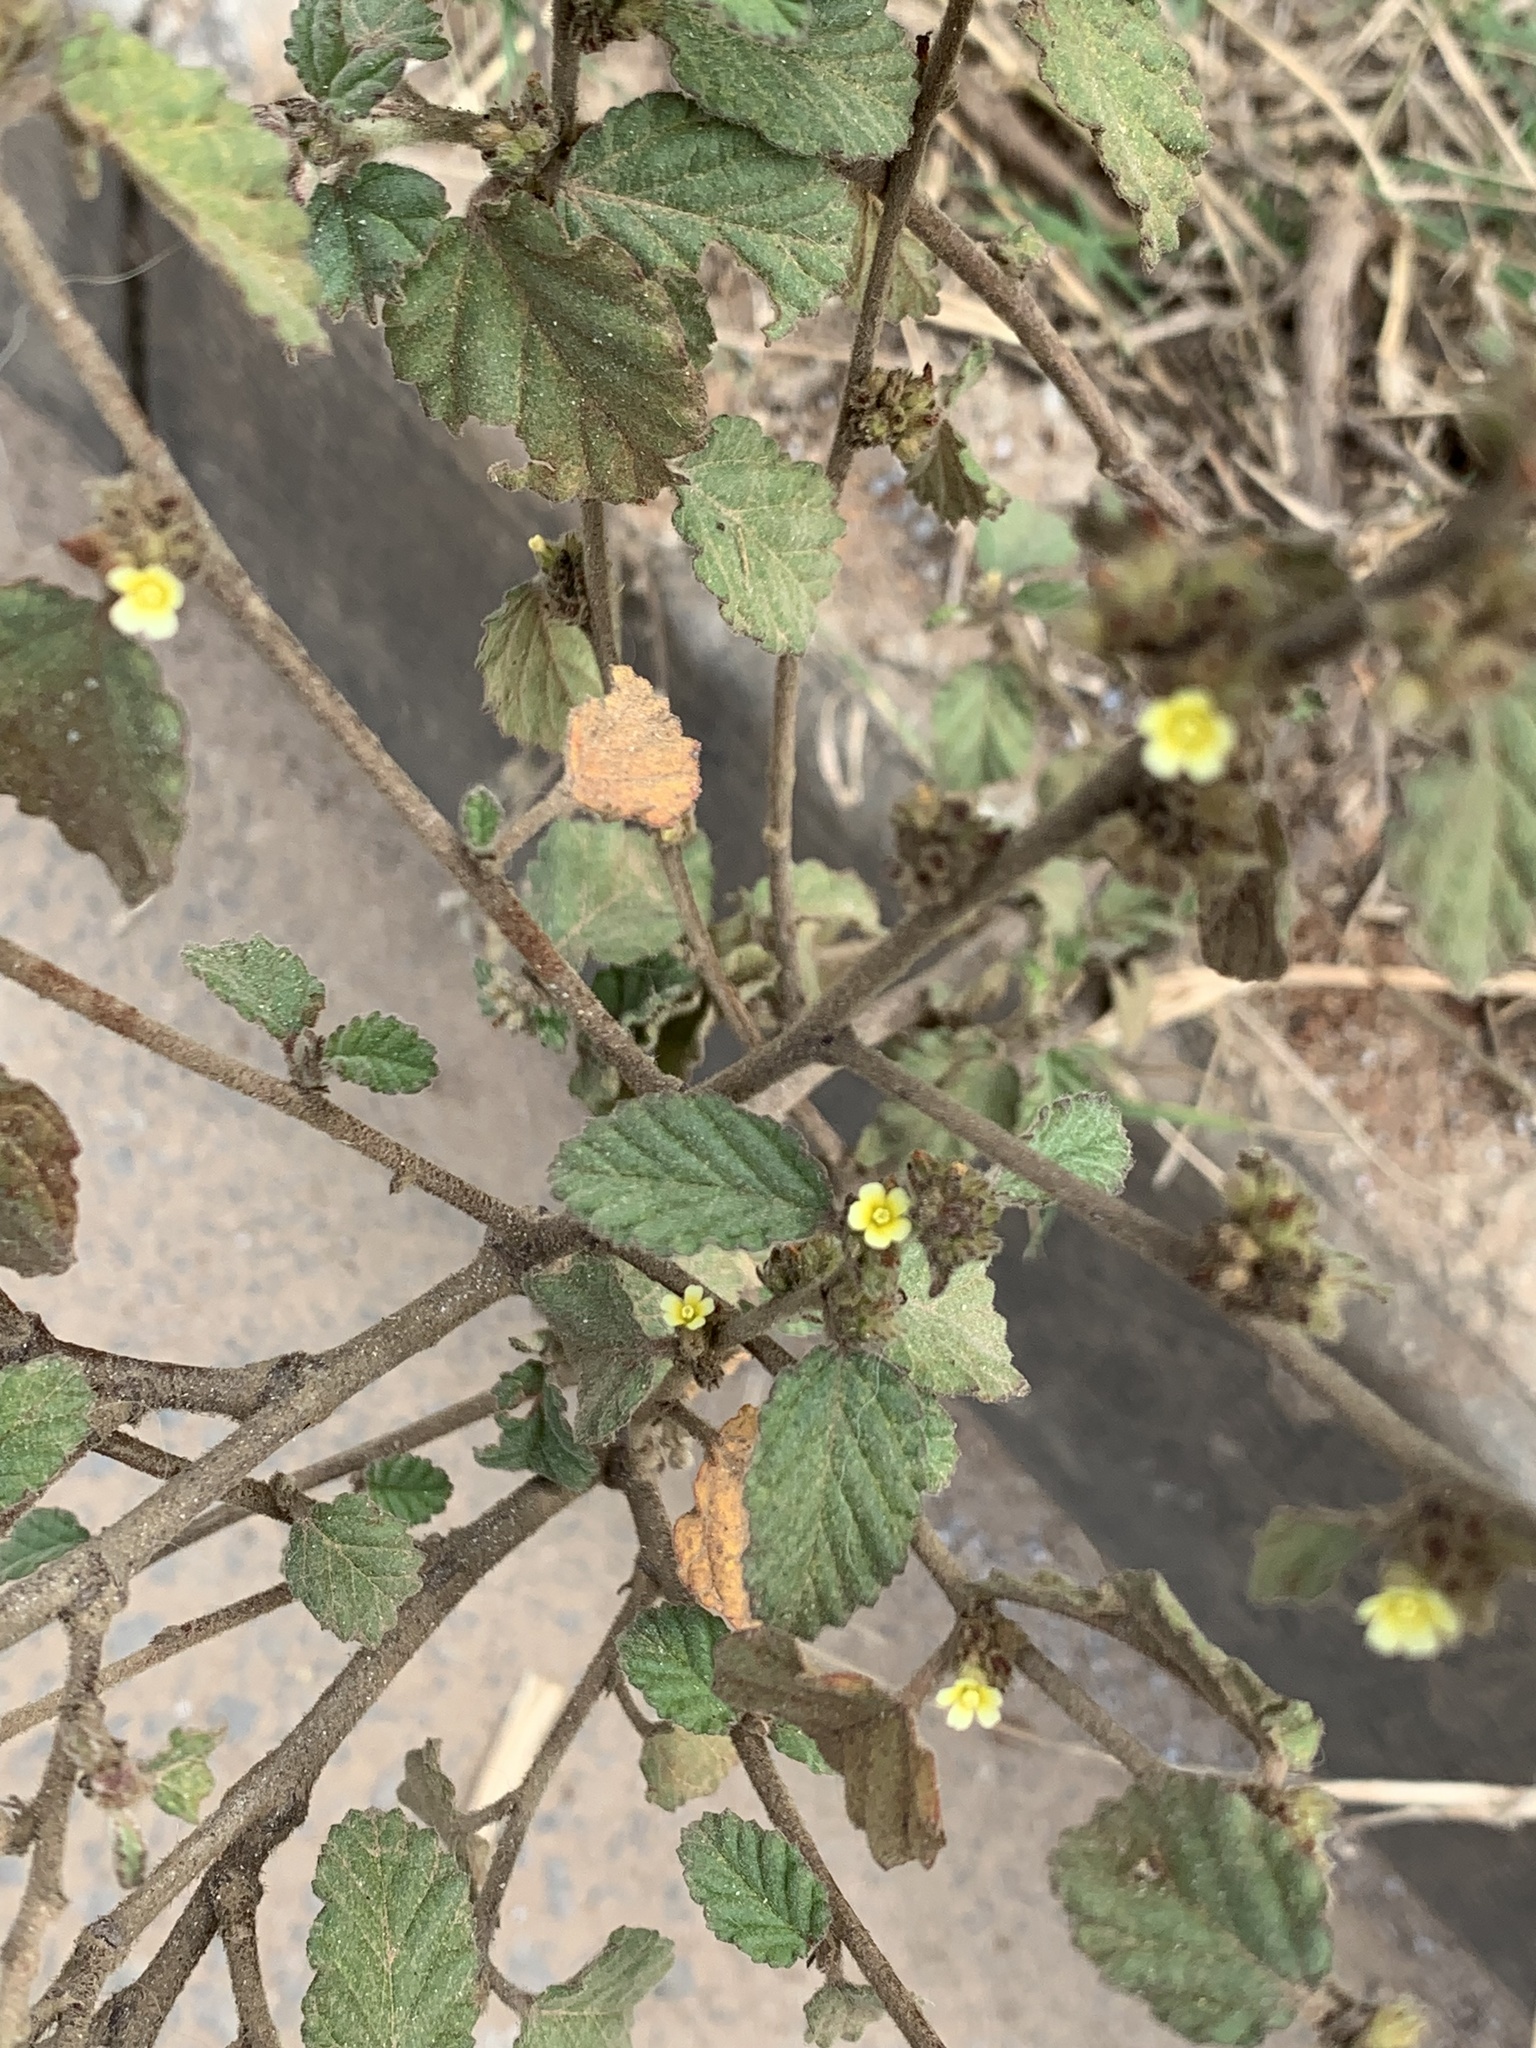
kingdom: Plantae
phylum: Tracheophyta
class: Magnoliopsida
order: Malvales
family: Malvaceae
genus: Waltheria
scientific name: Waltheria indica
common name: Leather-coat
